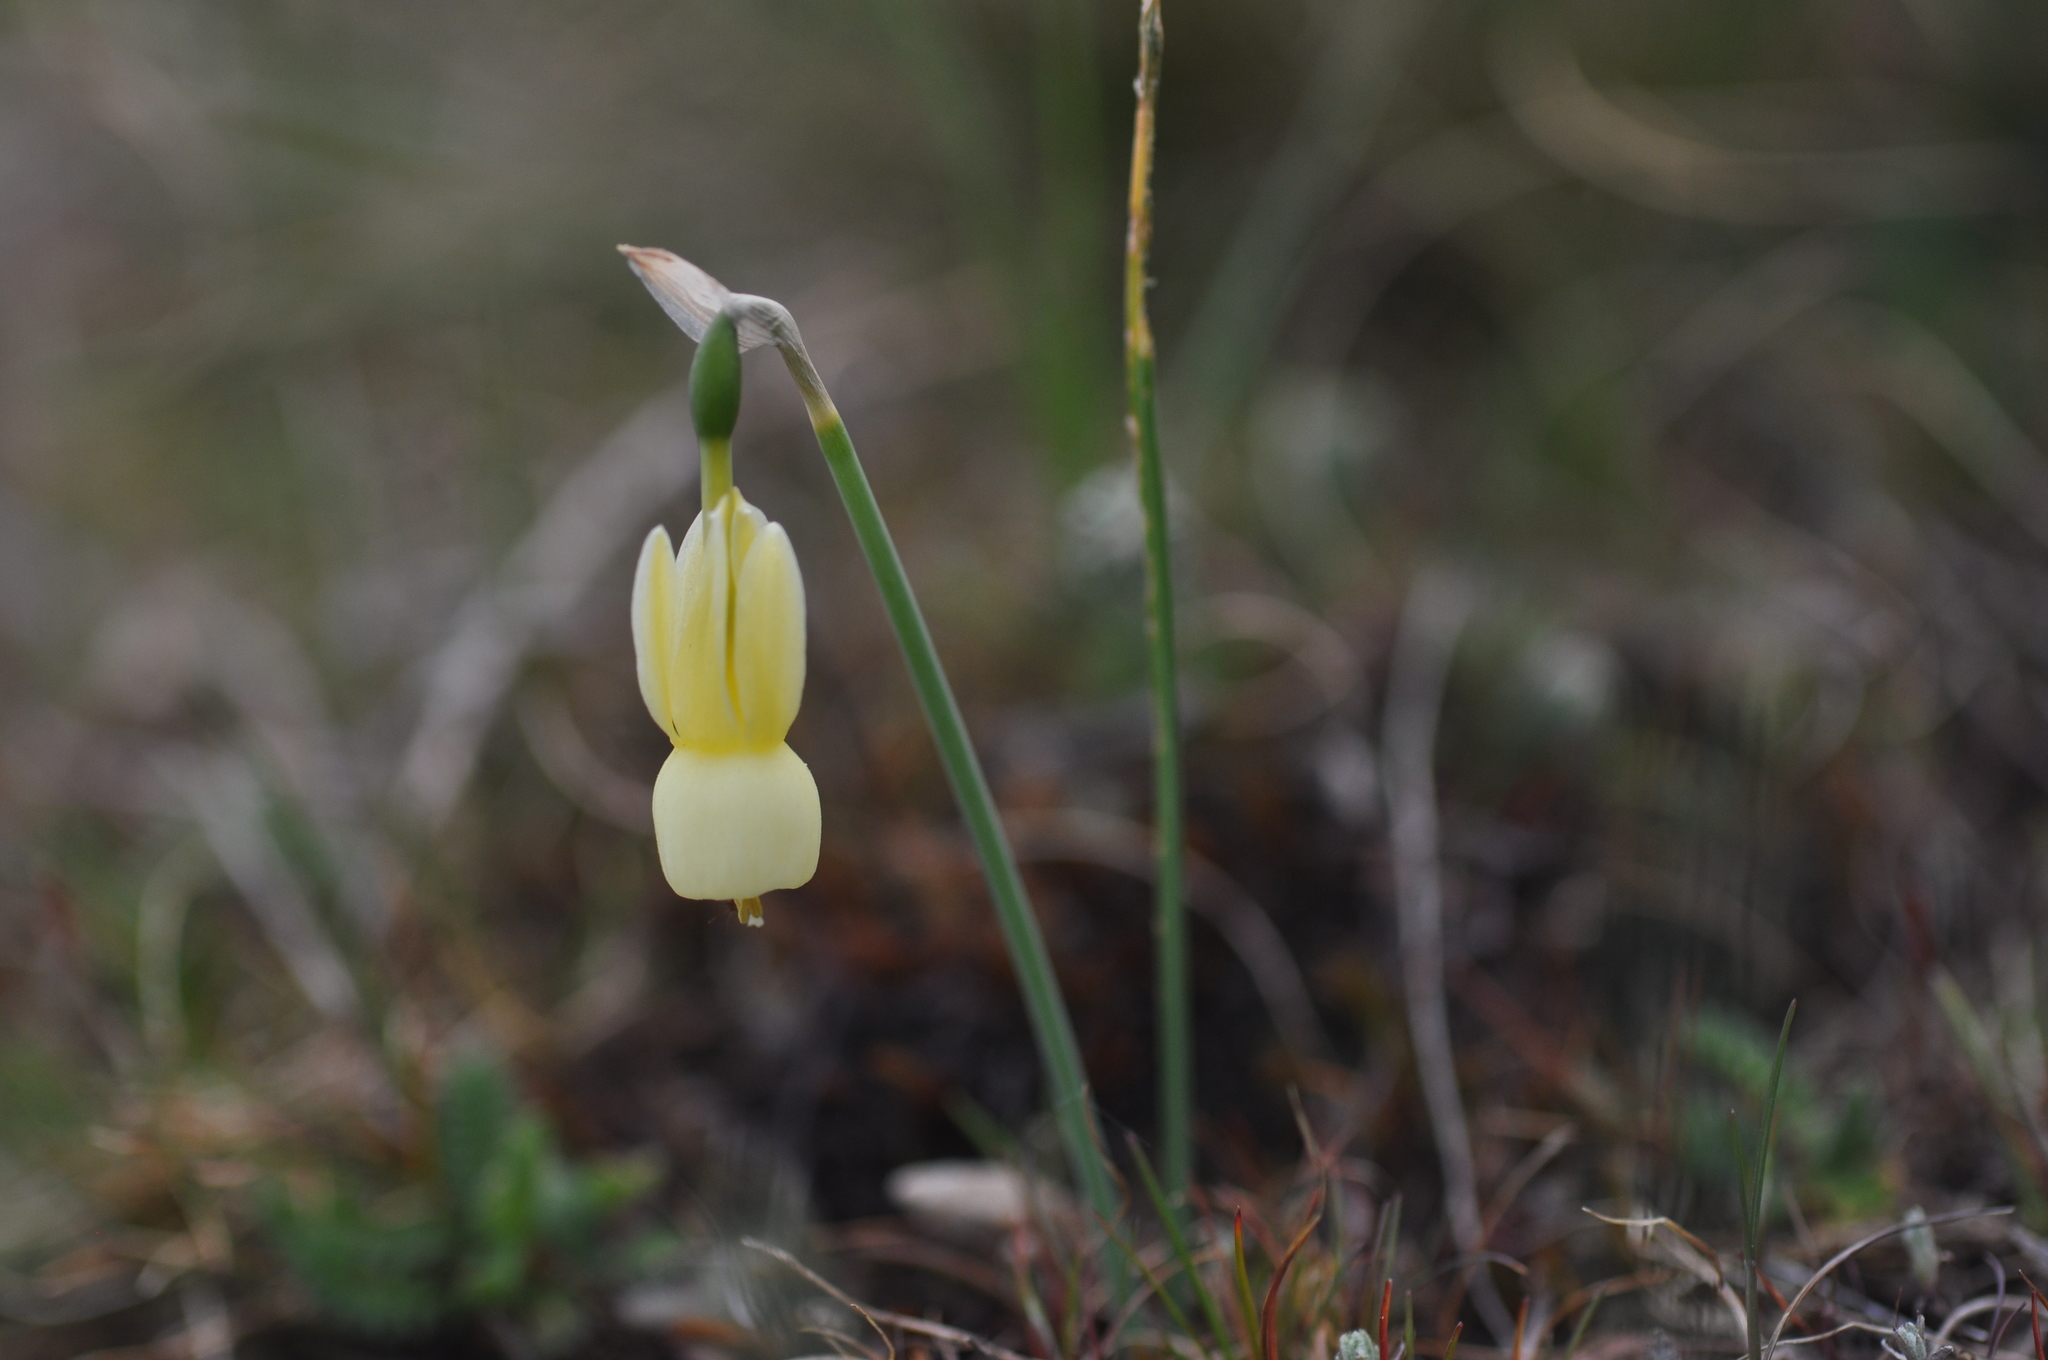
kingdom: Plantae
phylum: Tracheophyta
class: Liliopsida
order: Asparagales
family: Amaryllidaceae
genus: Narcissus
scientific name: Narcissus triandrus
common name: Angel's-tears
